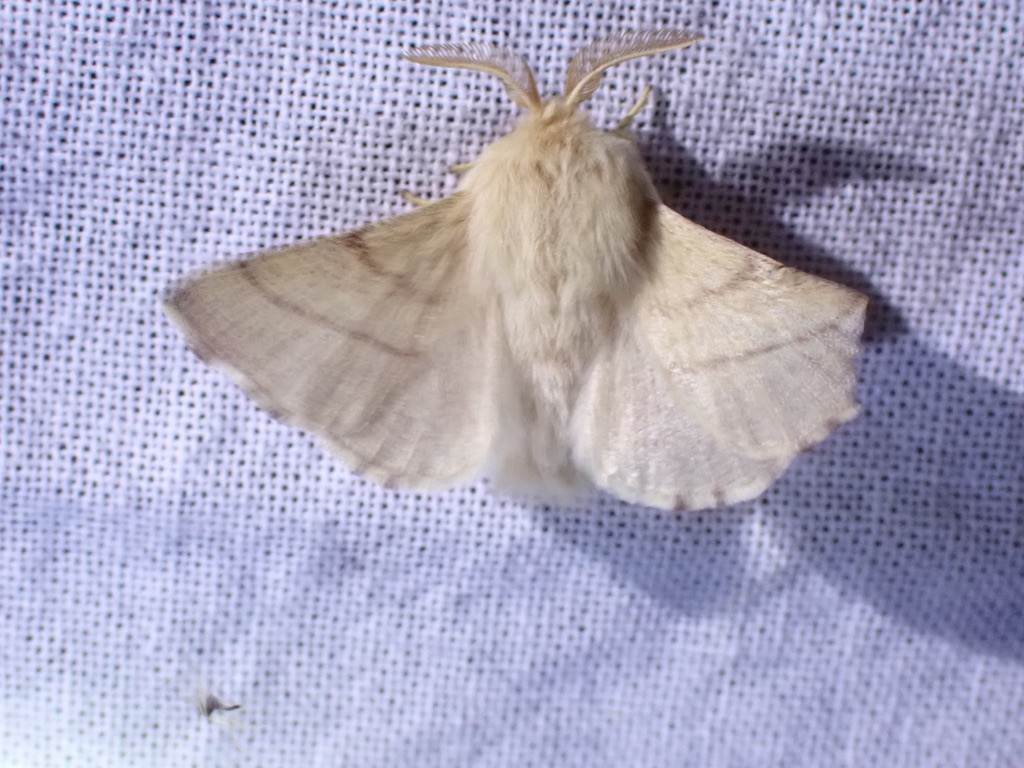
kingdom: Animalia
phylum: Arthropoda
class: Insecta
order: Lepidoptera
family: Lasiocampidae
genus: Malacosoma
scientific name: Malacosoma constricta
